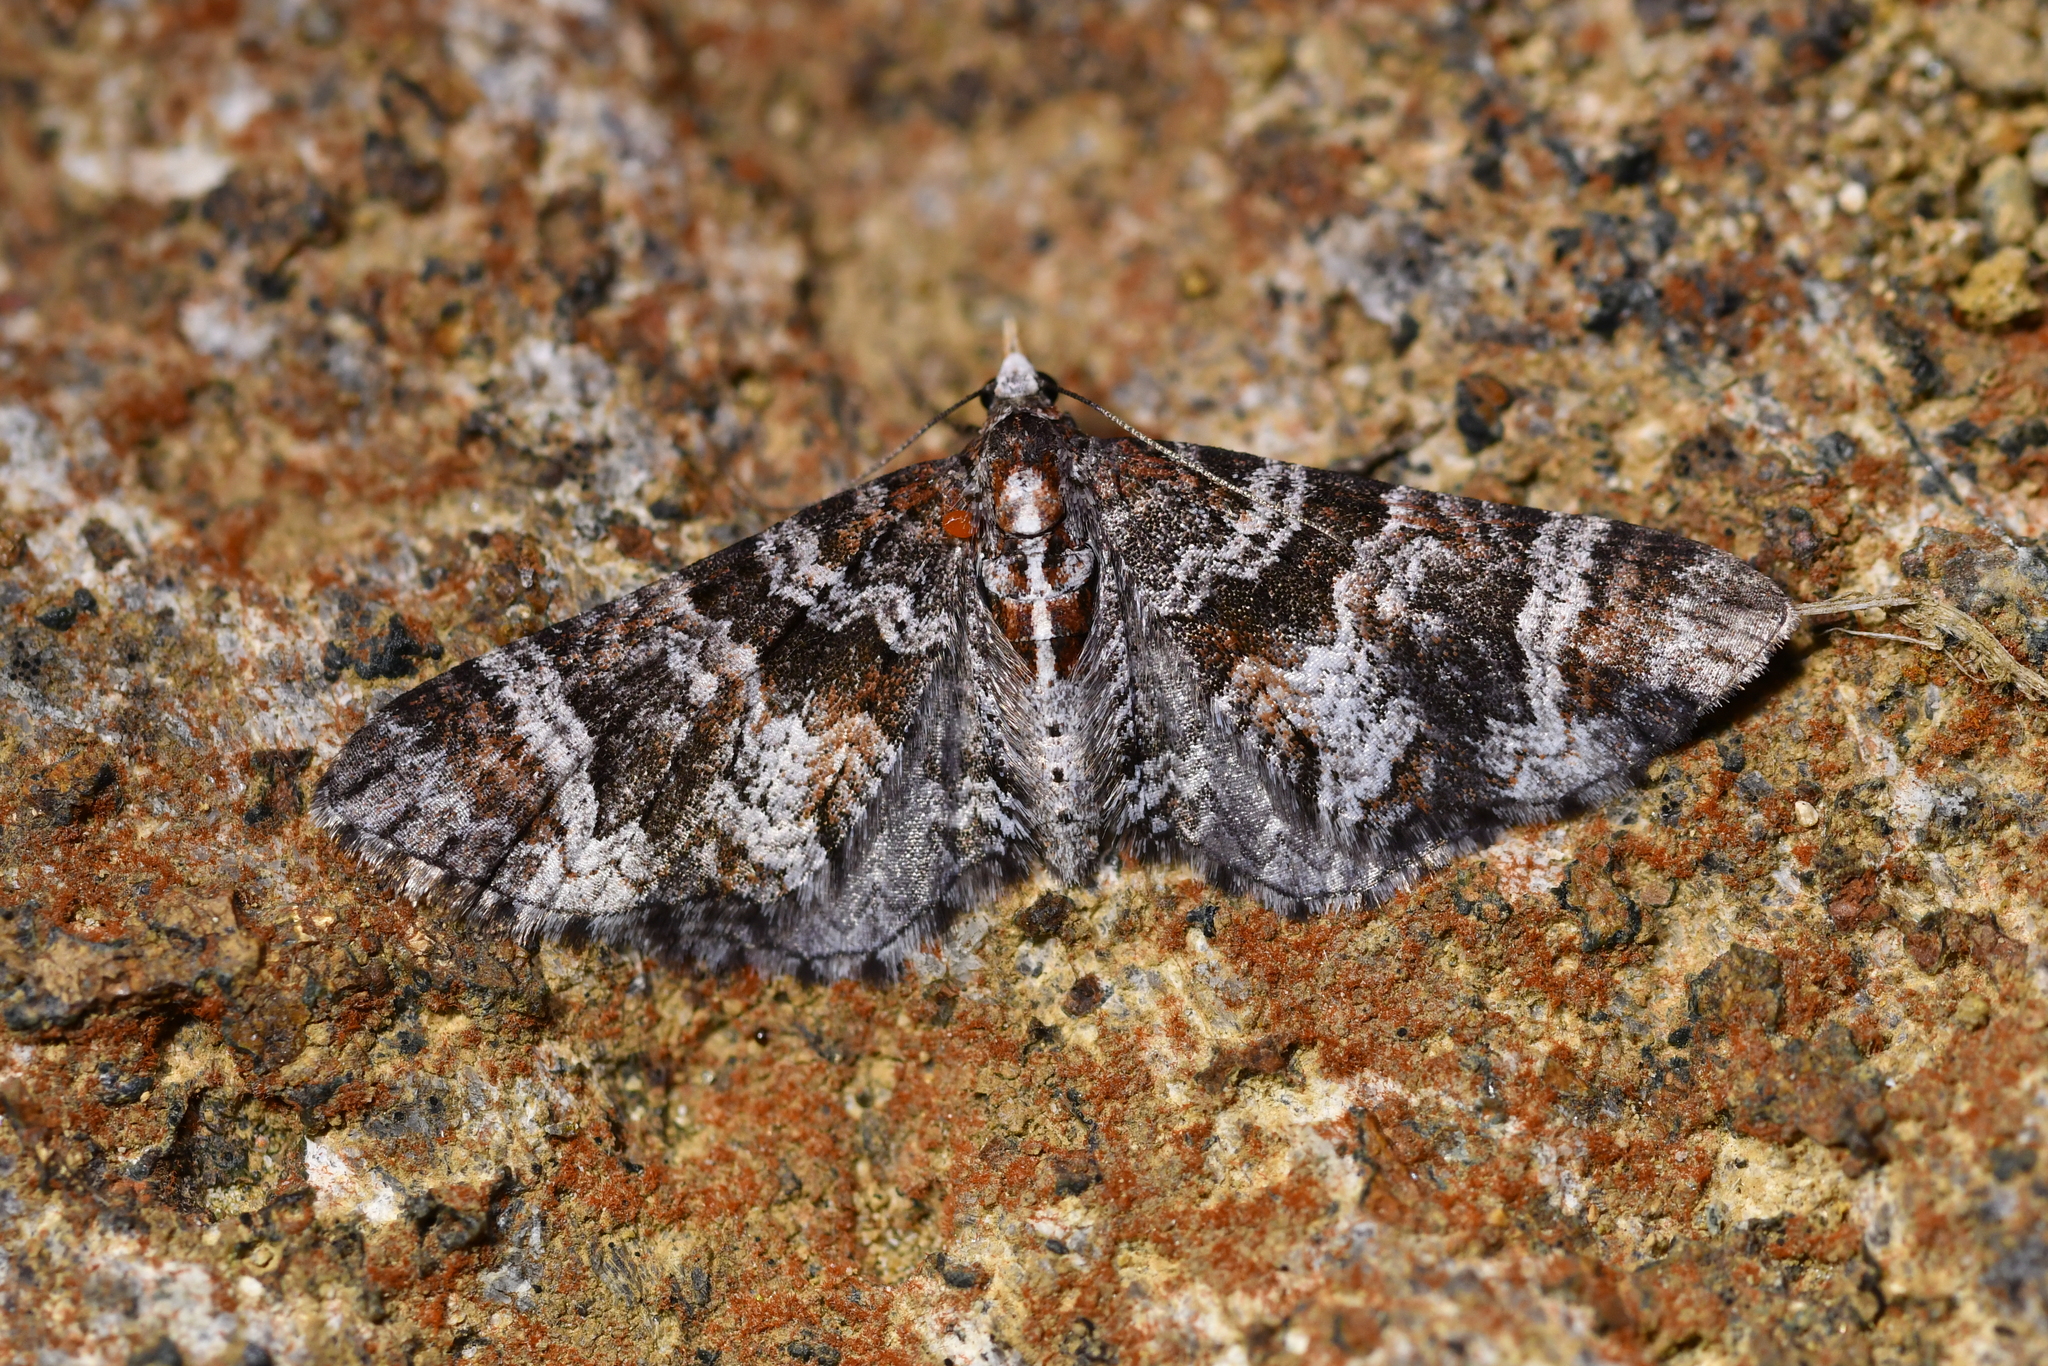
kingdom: Animalia
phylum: Arthropoda
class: Insecta
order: Lepidoptera
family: Geometridae
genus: Pasiphila
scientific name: Pasiphila halianthes
